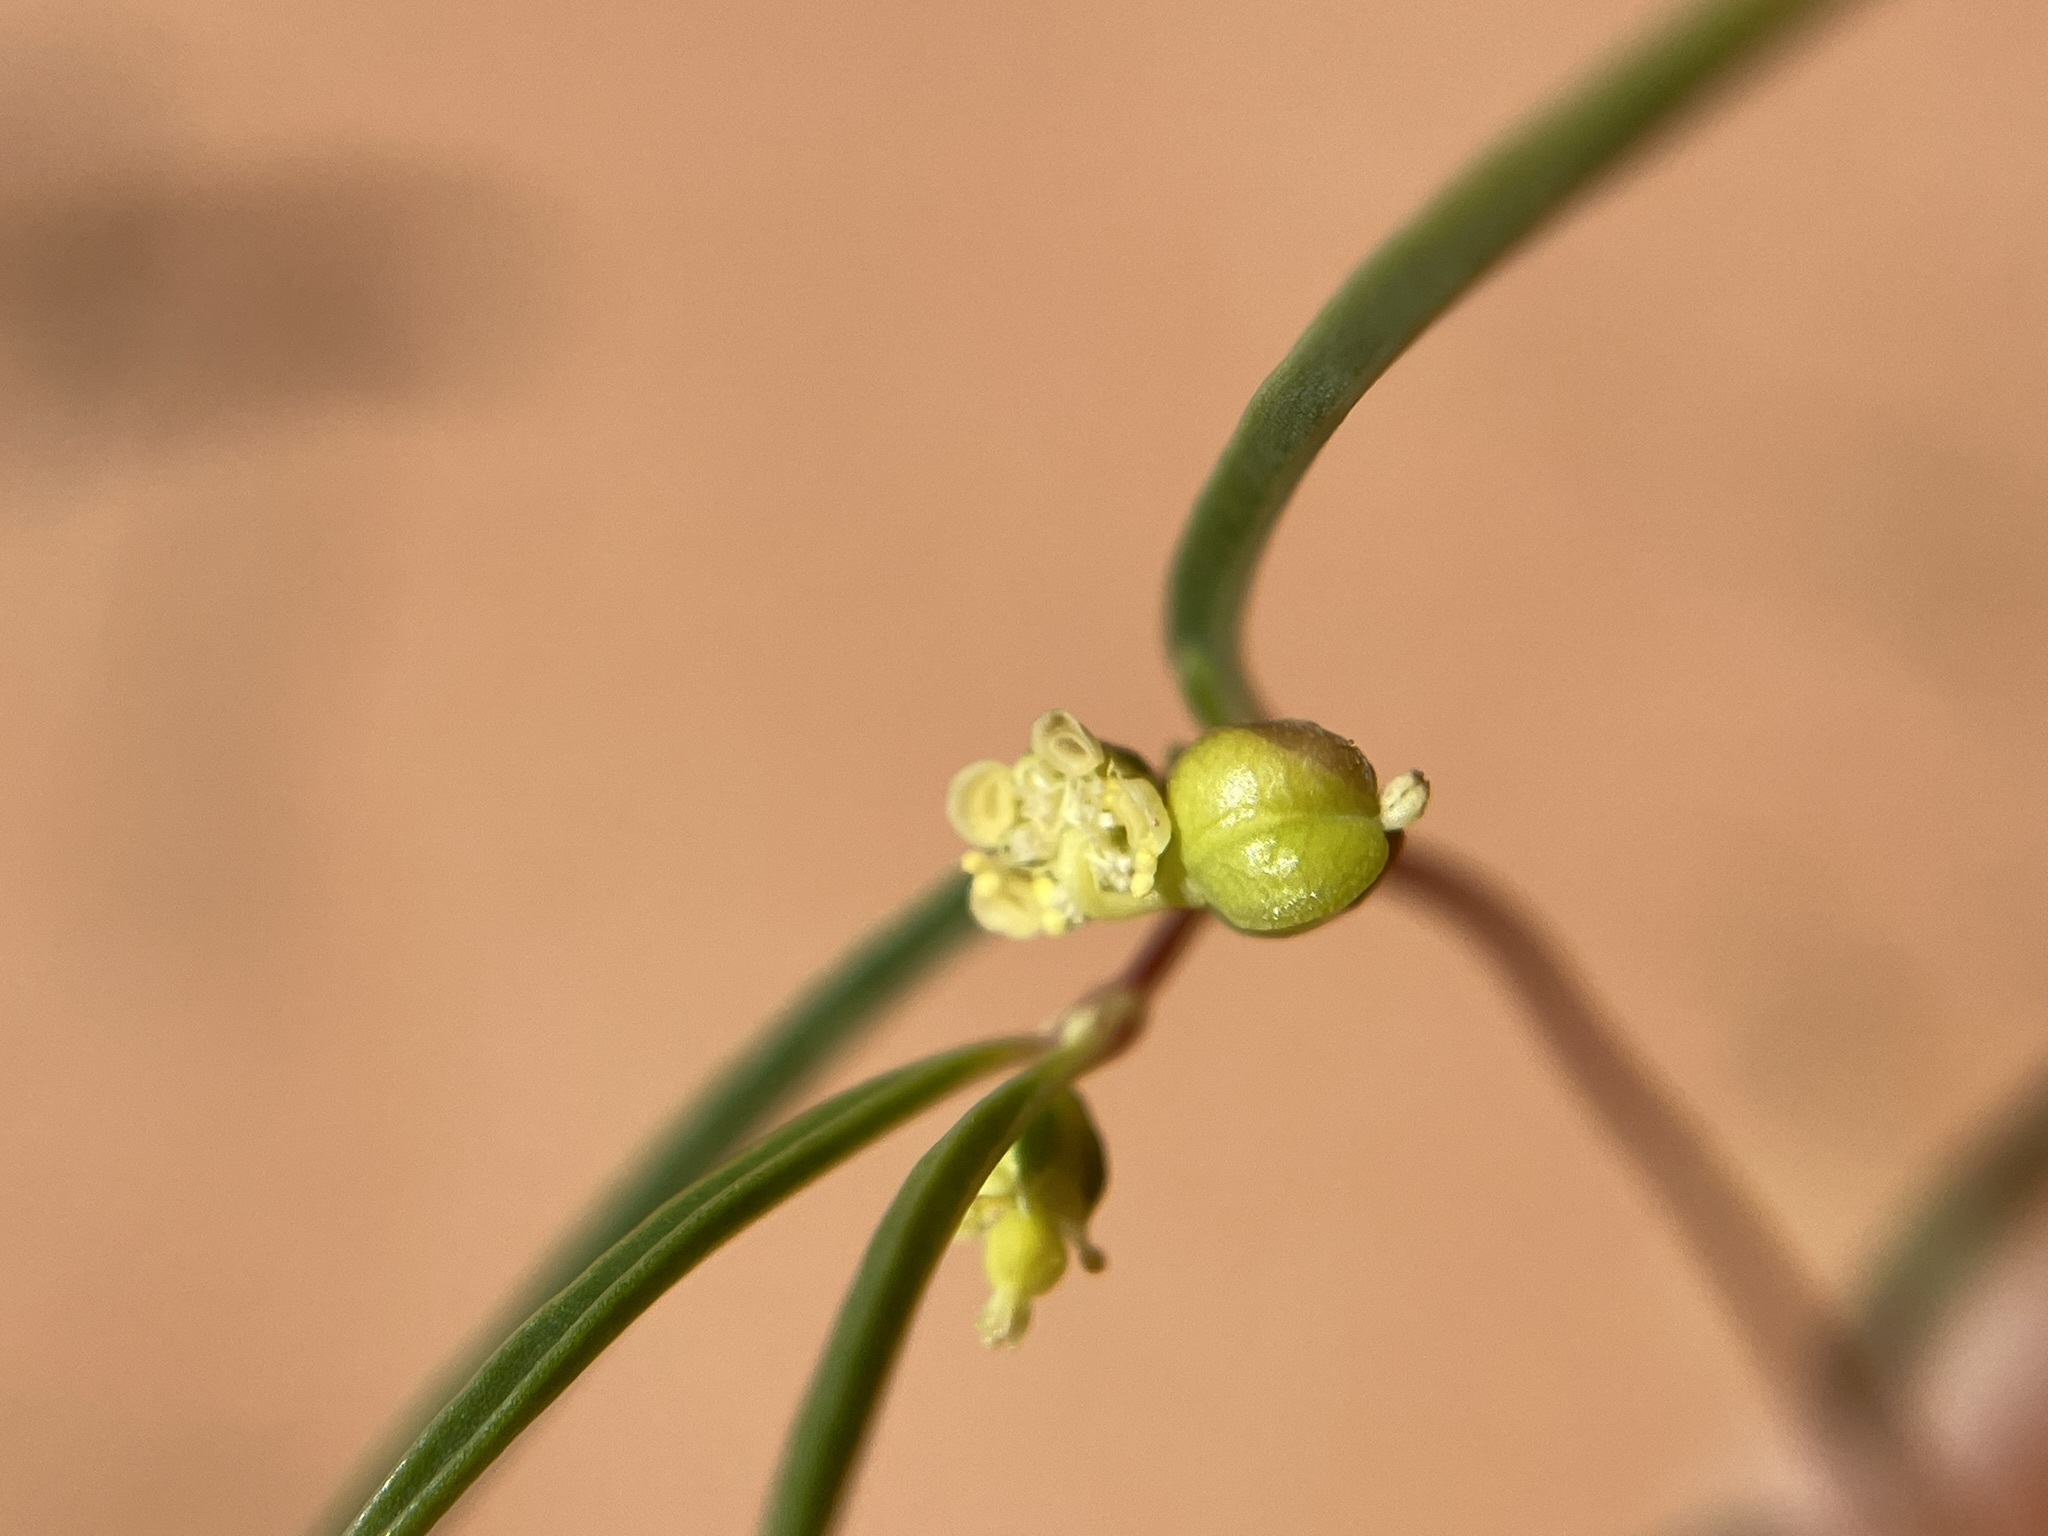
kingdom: Plantae
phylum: Tracheophyta
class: Magnoliopsida
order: Malpighiales
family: Euphorbiaceae
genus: Euphorbia
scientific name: Euphorbia parryi
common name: Dune spurge
